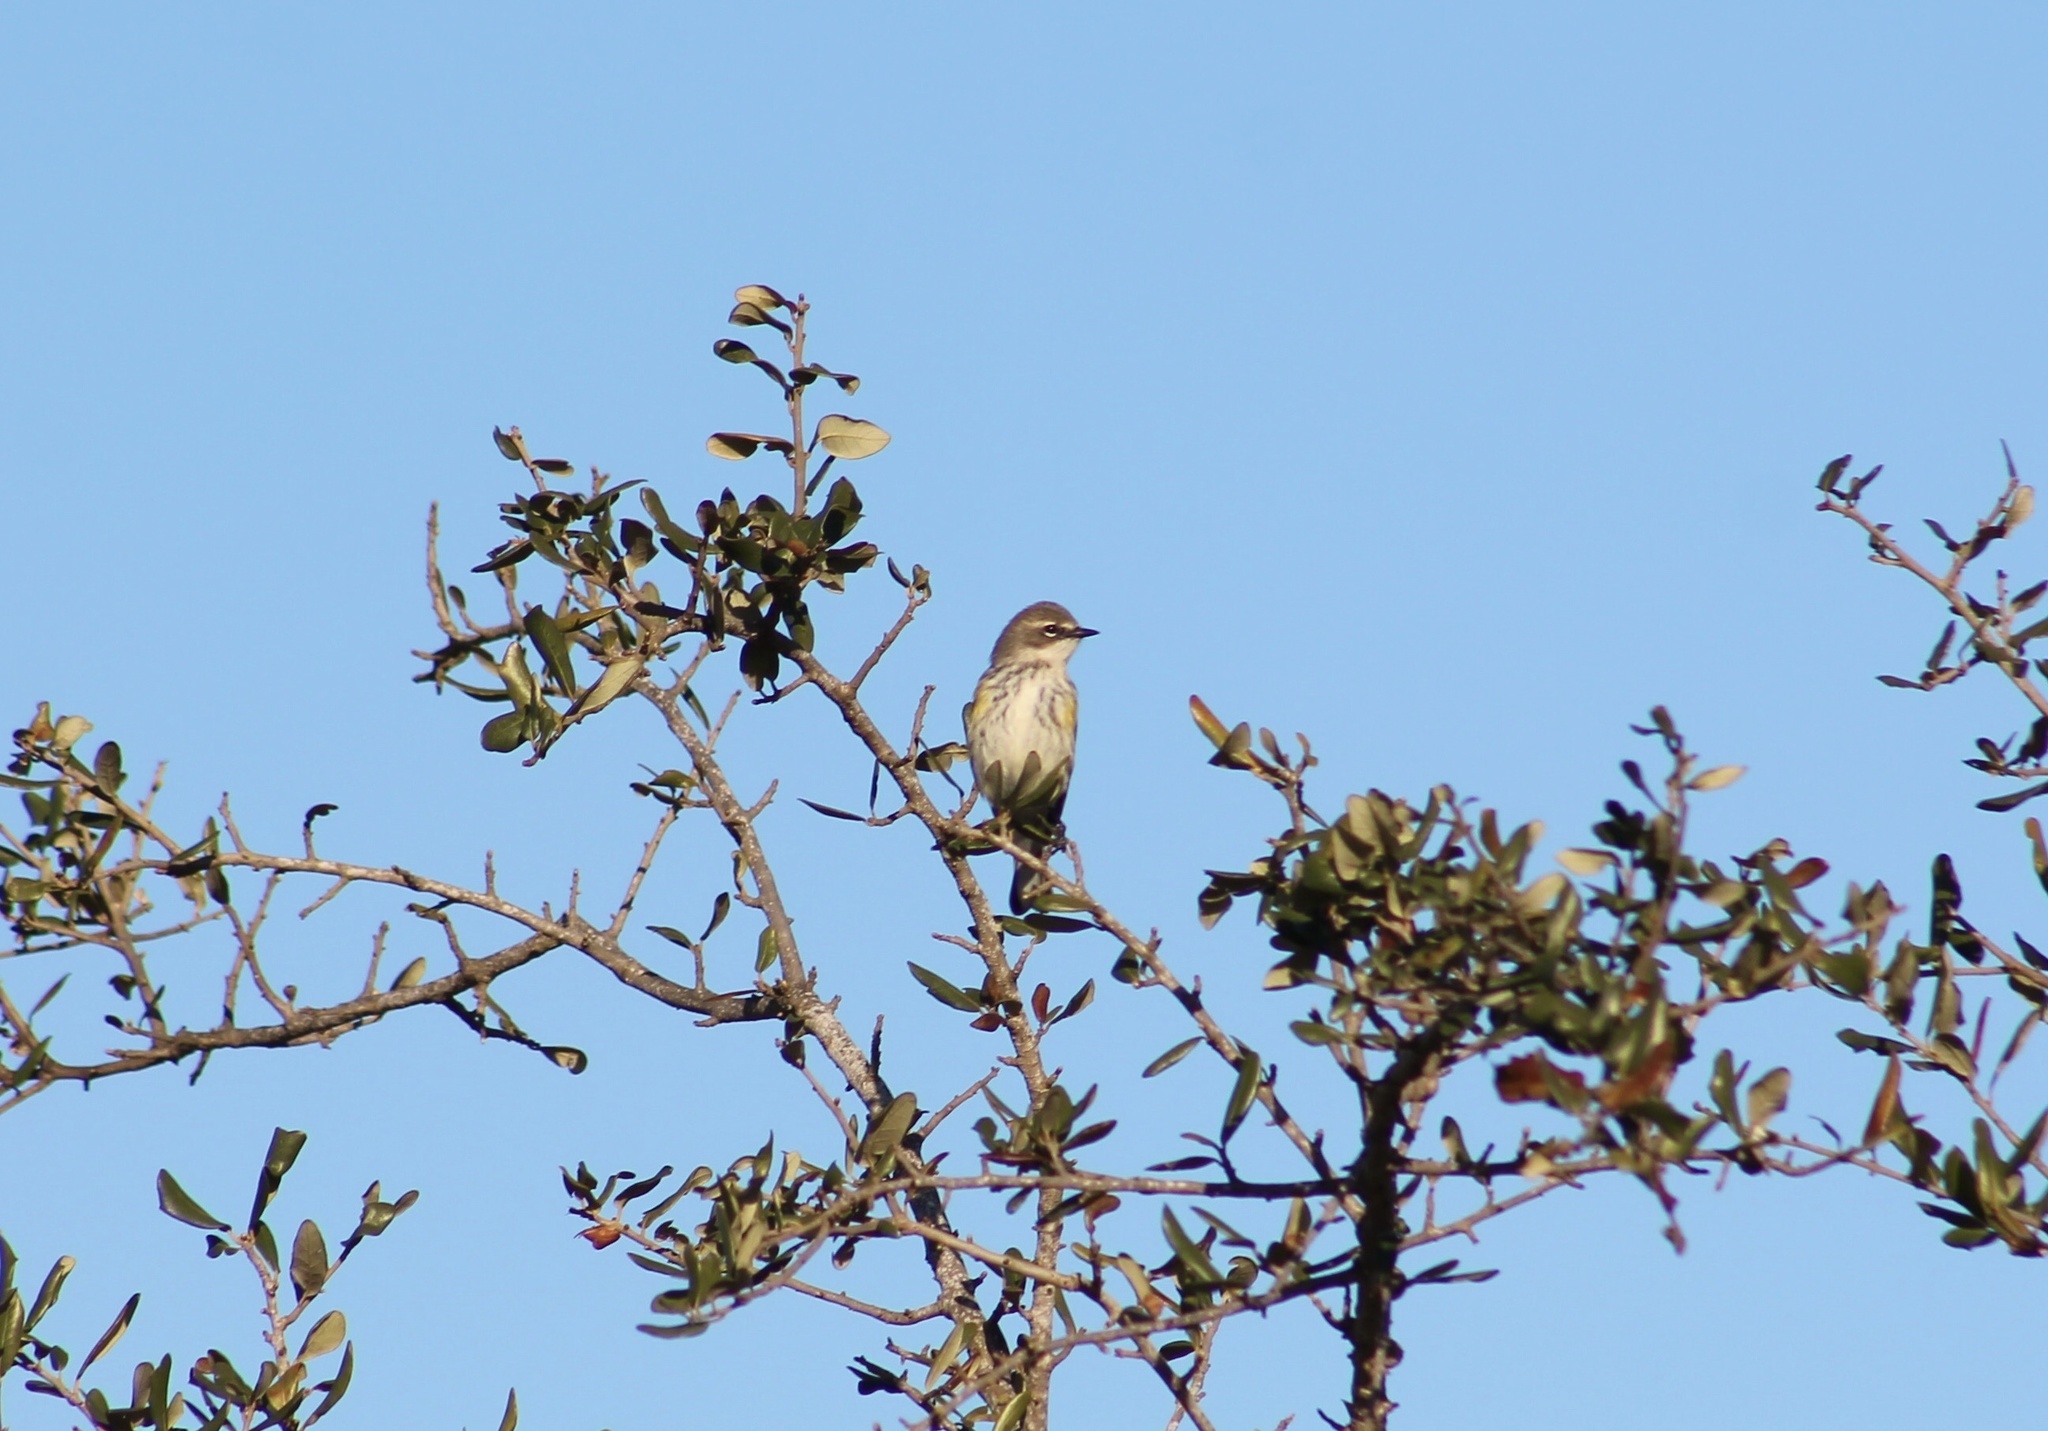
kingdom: Animalia
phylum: Chordata
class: Aves
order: Passeriformes
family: Parulidae
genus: Setophaga
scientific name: Setophaga coronata
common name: Myrtle warbler
